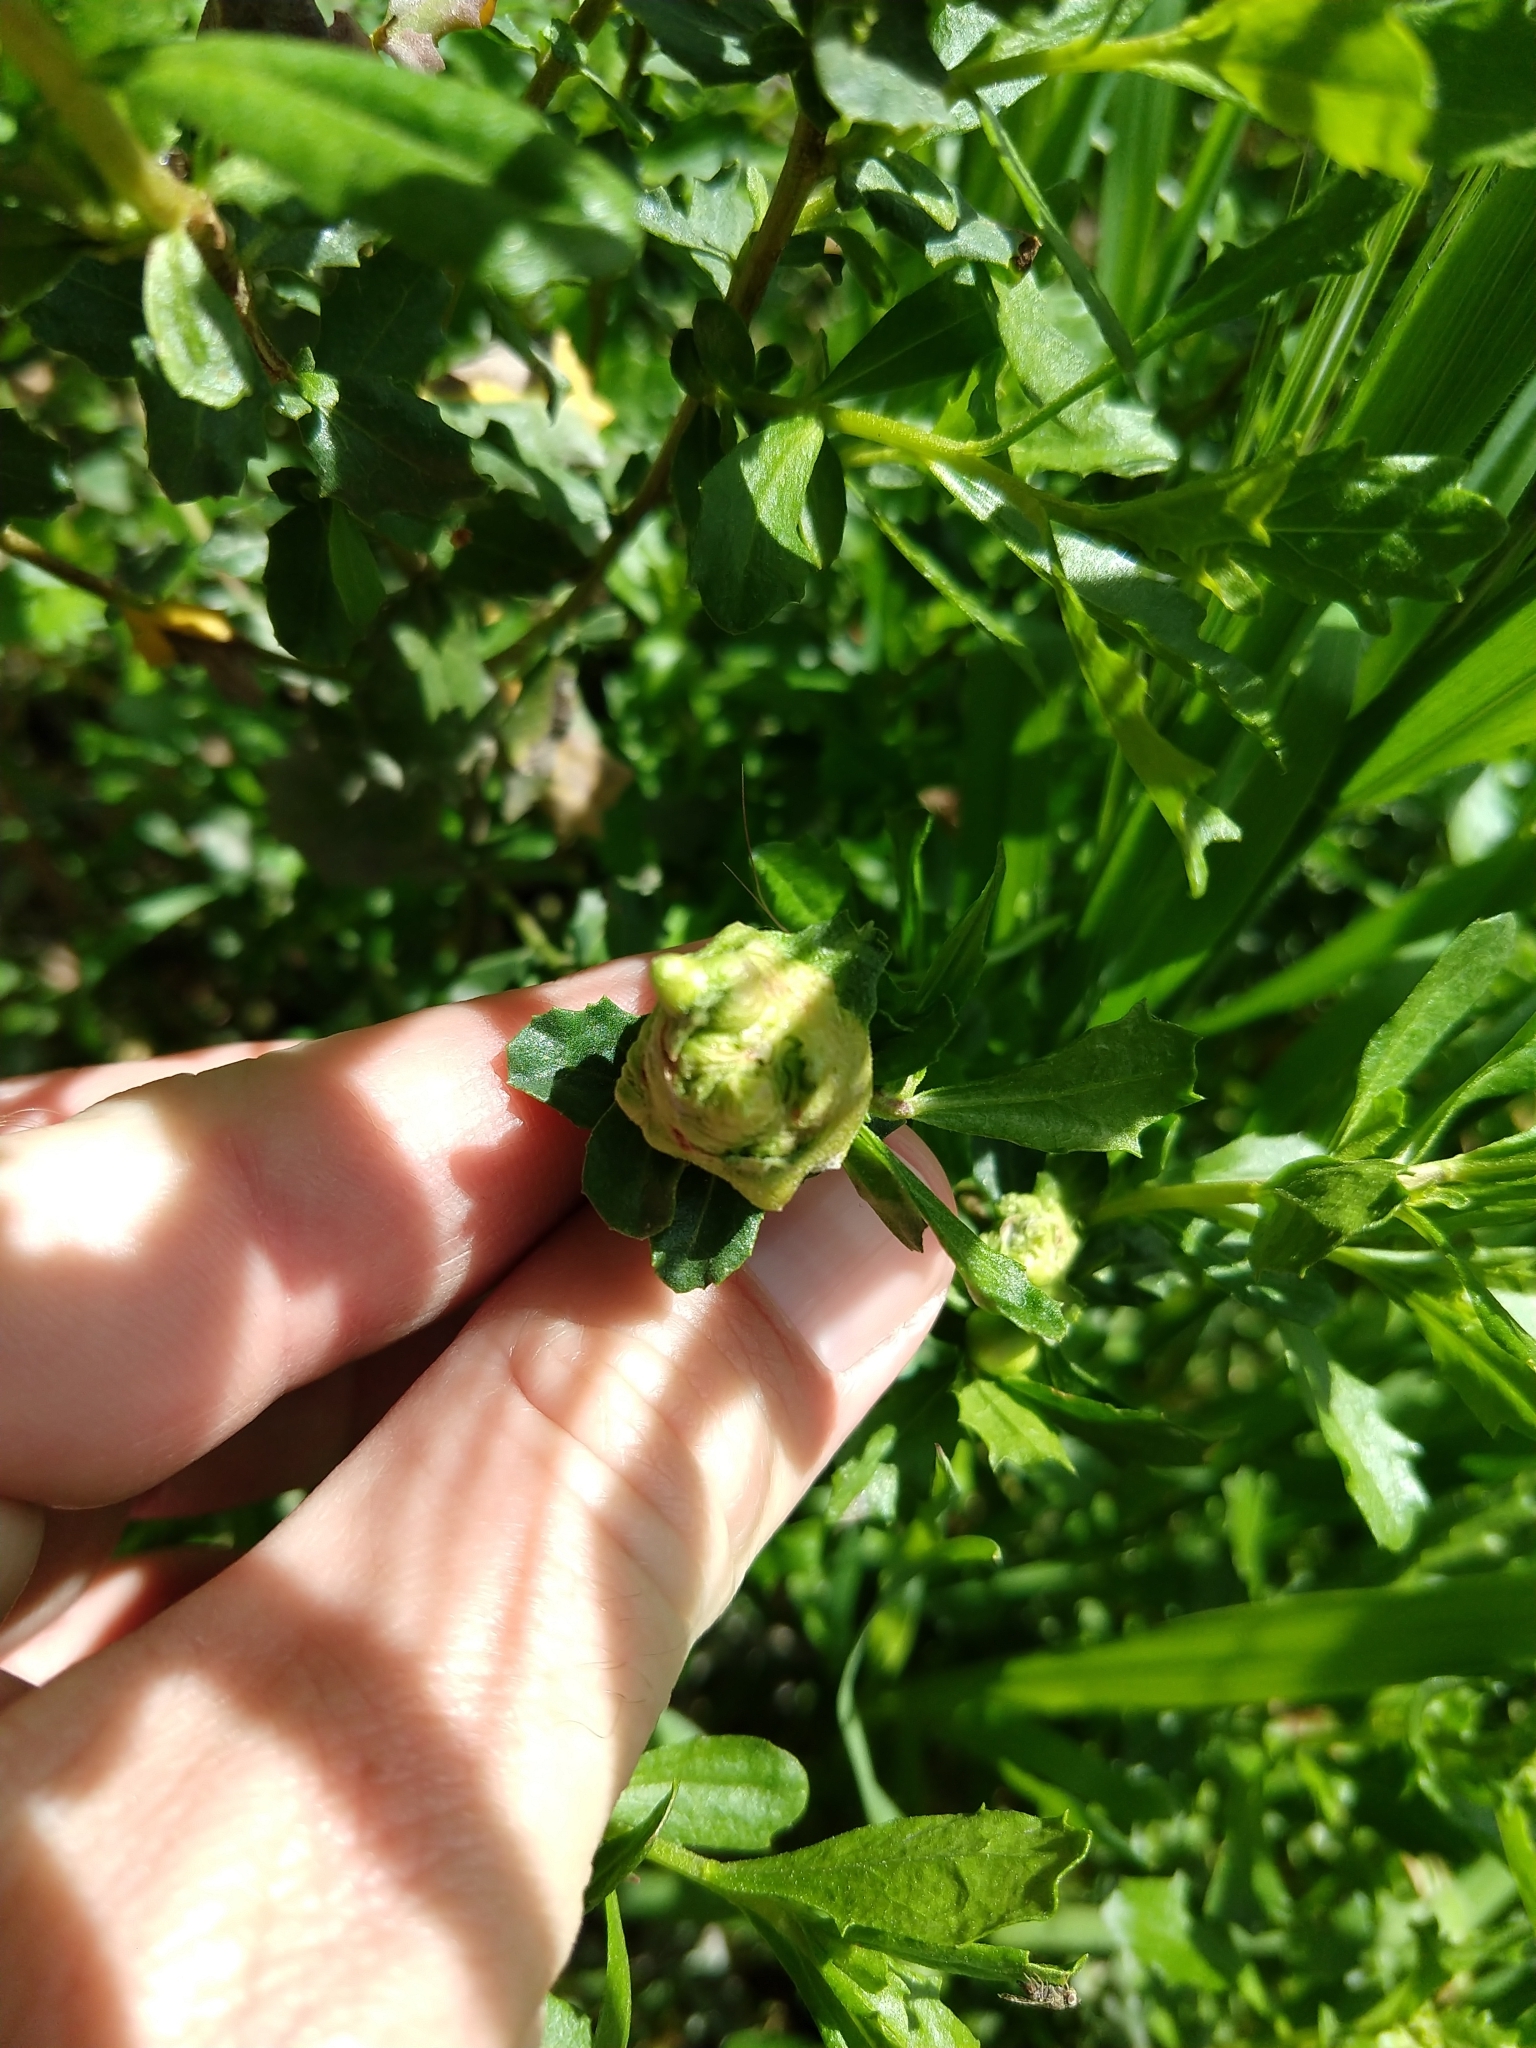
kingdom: Animalia
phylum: Arthropoda
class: Insecta
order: Diptera
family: Cecidomyiidae
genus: Rhopalomyia
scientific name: Rhopalomyia californica
